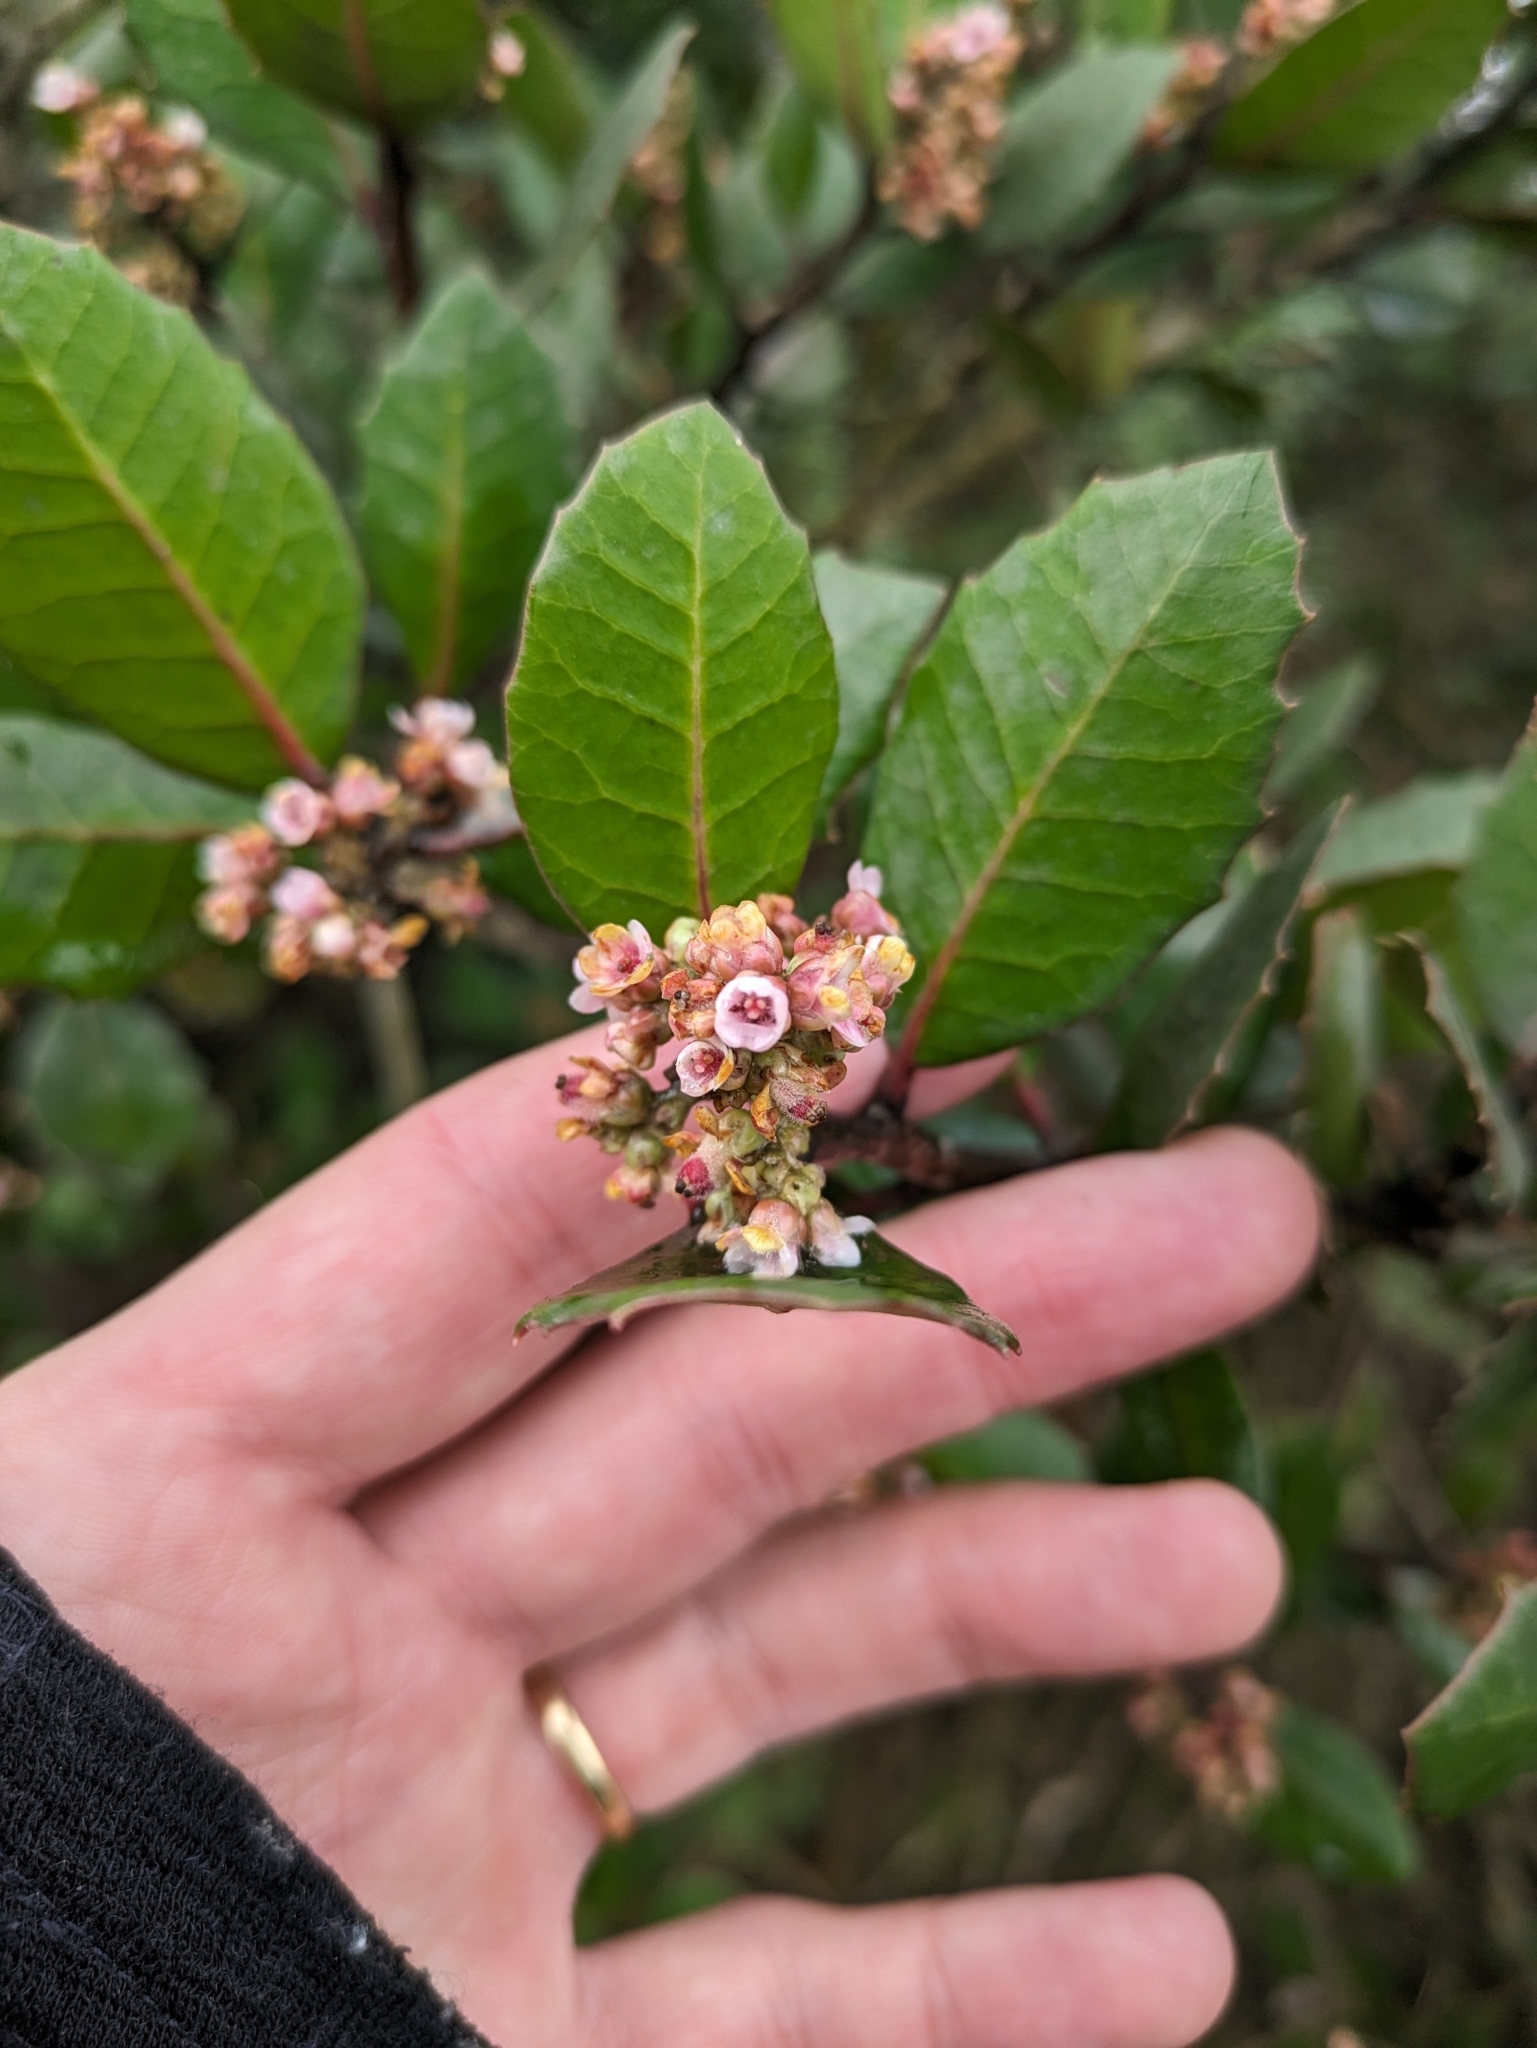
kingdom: Plantae
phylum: Tracheophyta
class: Magnoliopsida
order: Sapindales
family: Anacardiaceae
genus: Rhus
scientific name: Rhus integrifolia
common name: Lemonade sumac
